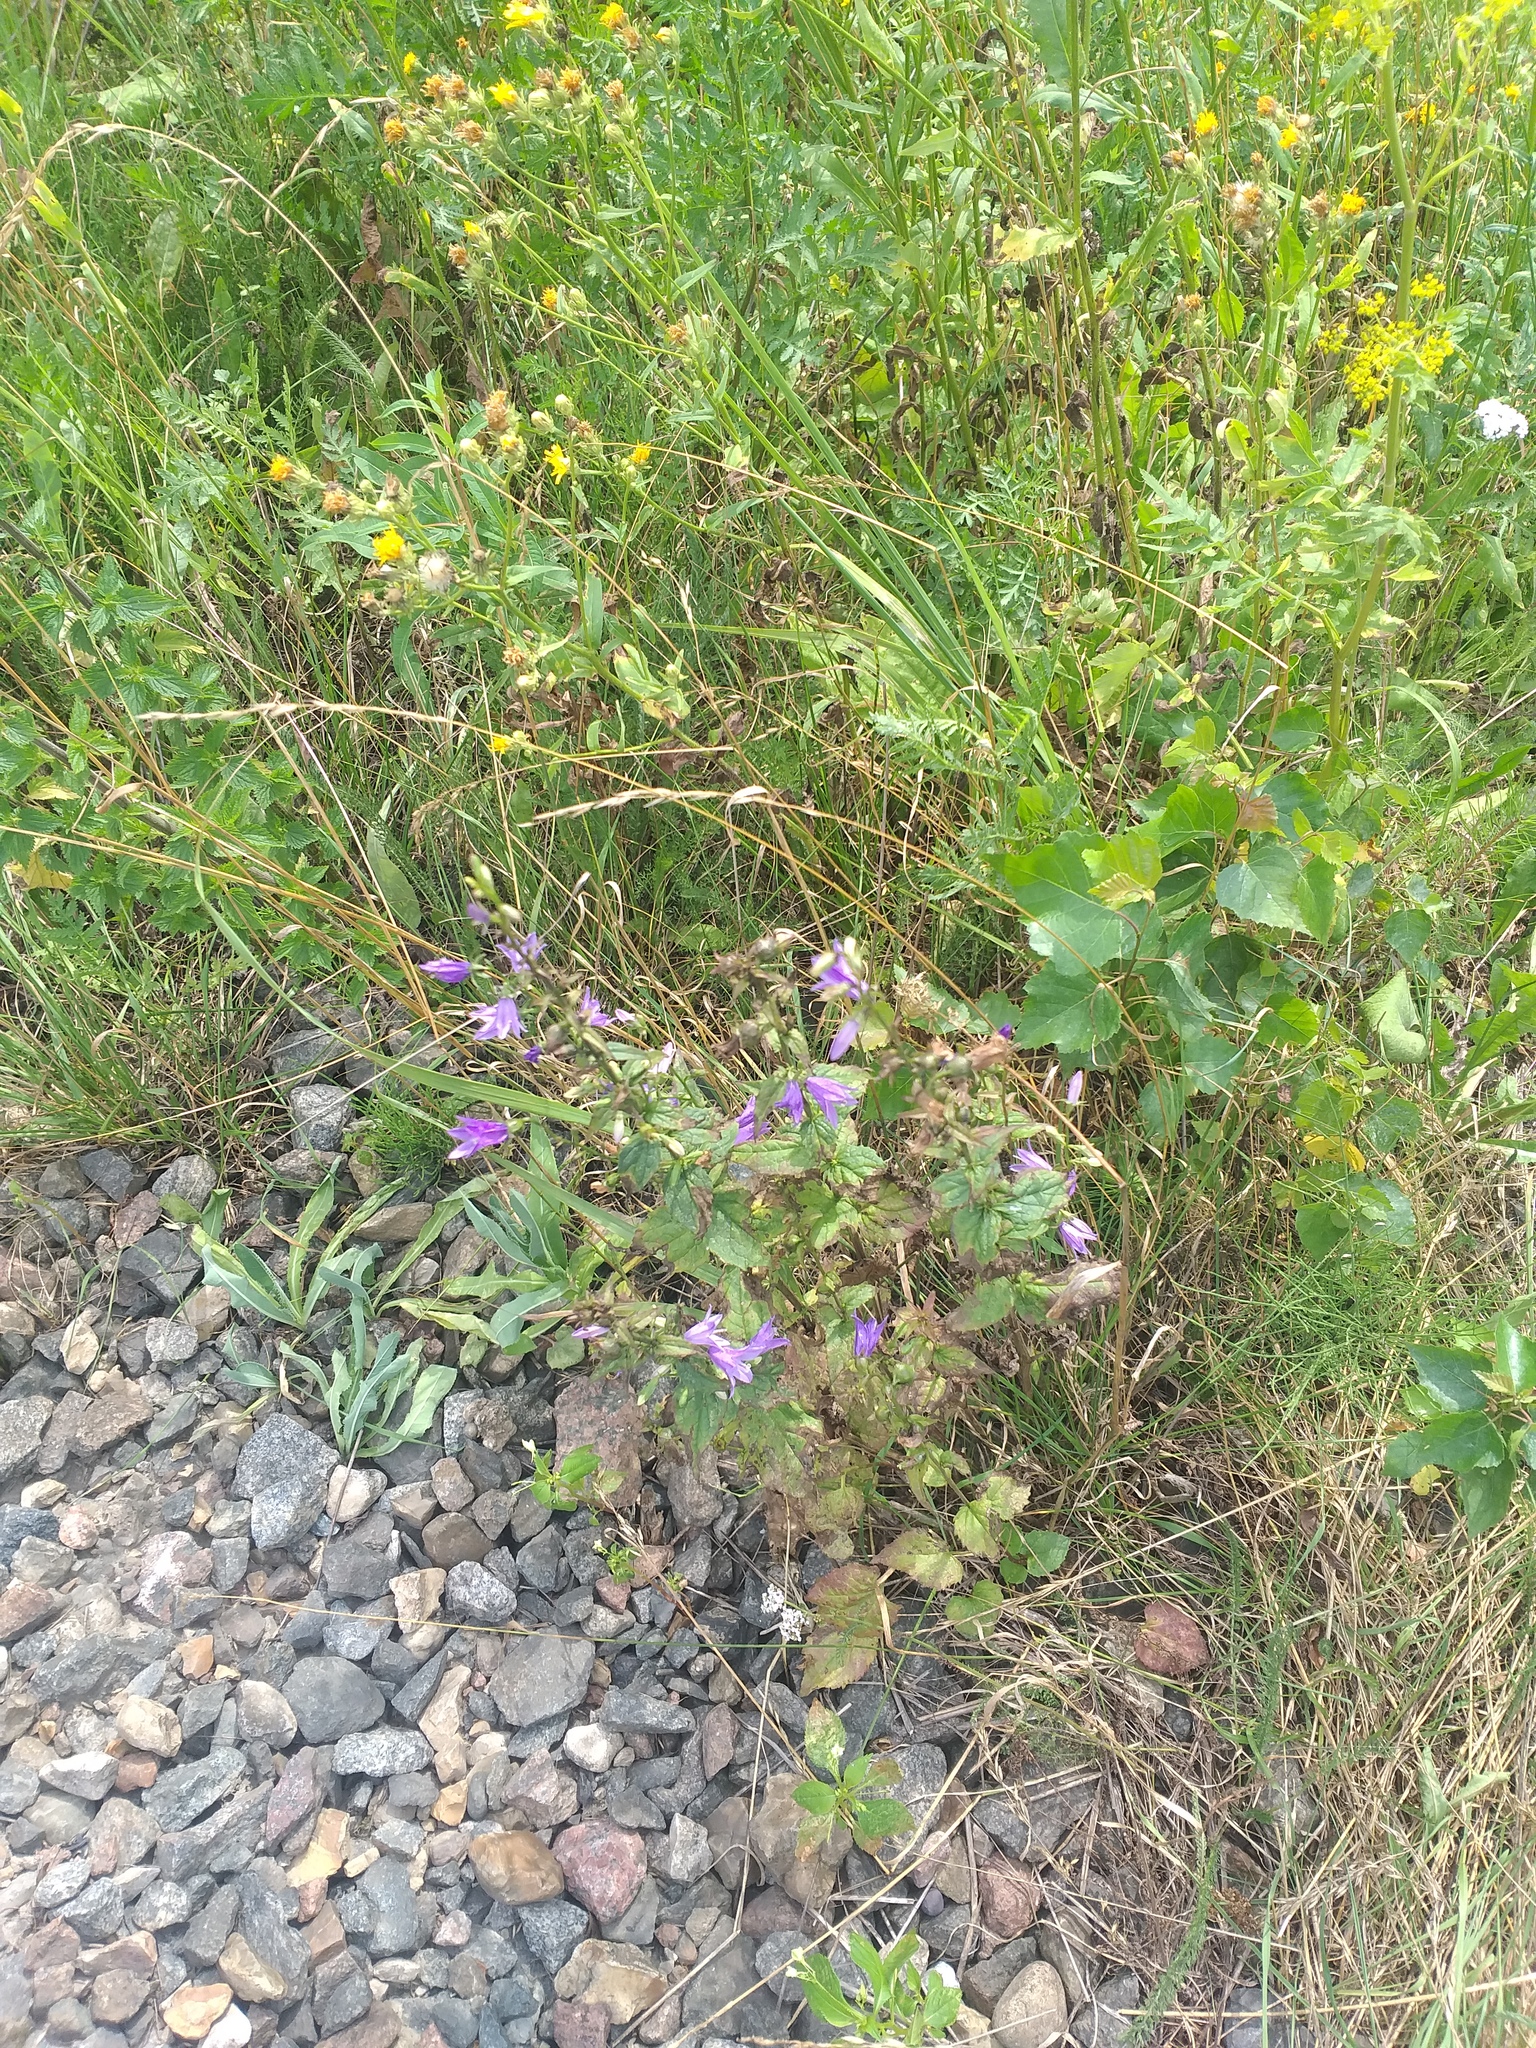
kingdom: Plantae
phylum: Tracheophyta
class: Magnoliopsida
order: Asterales
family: Campanulaceae
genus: Campanula
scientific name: Campanula rapunculoides
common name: Creeping bellflower
